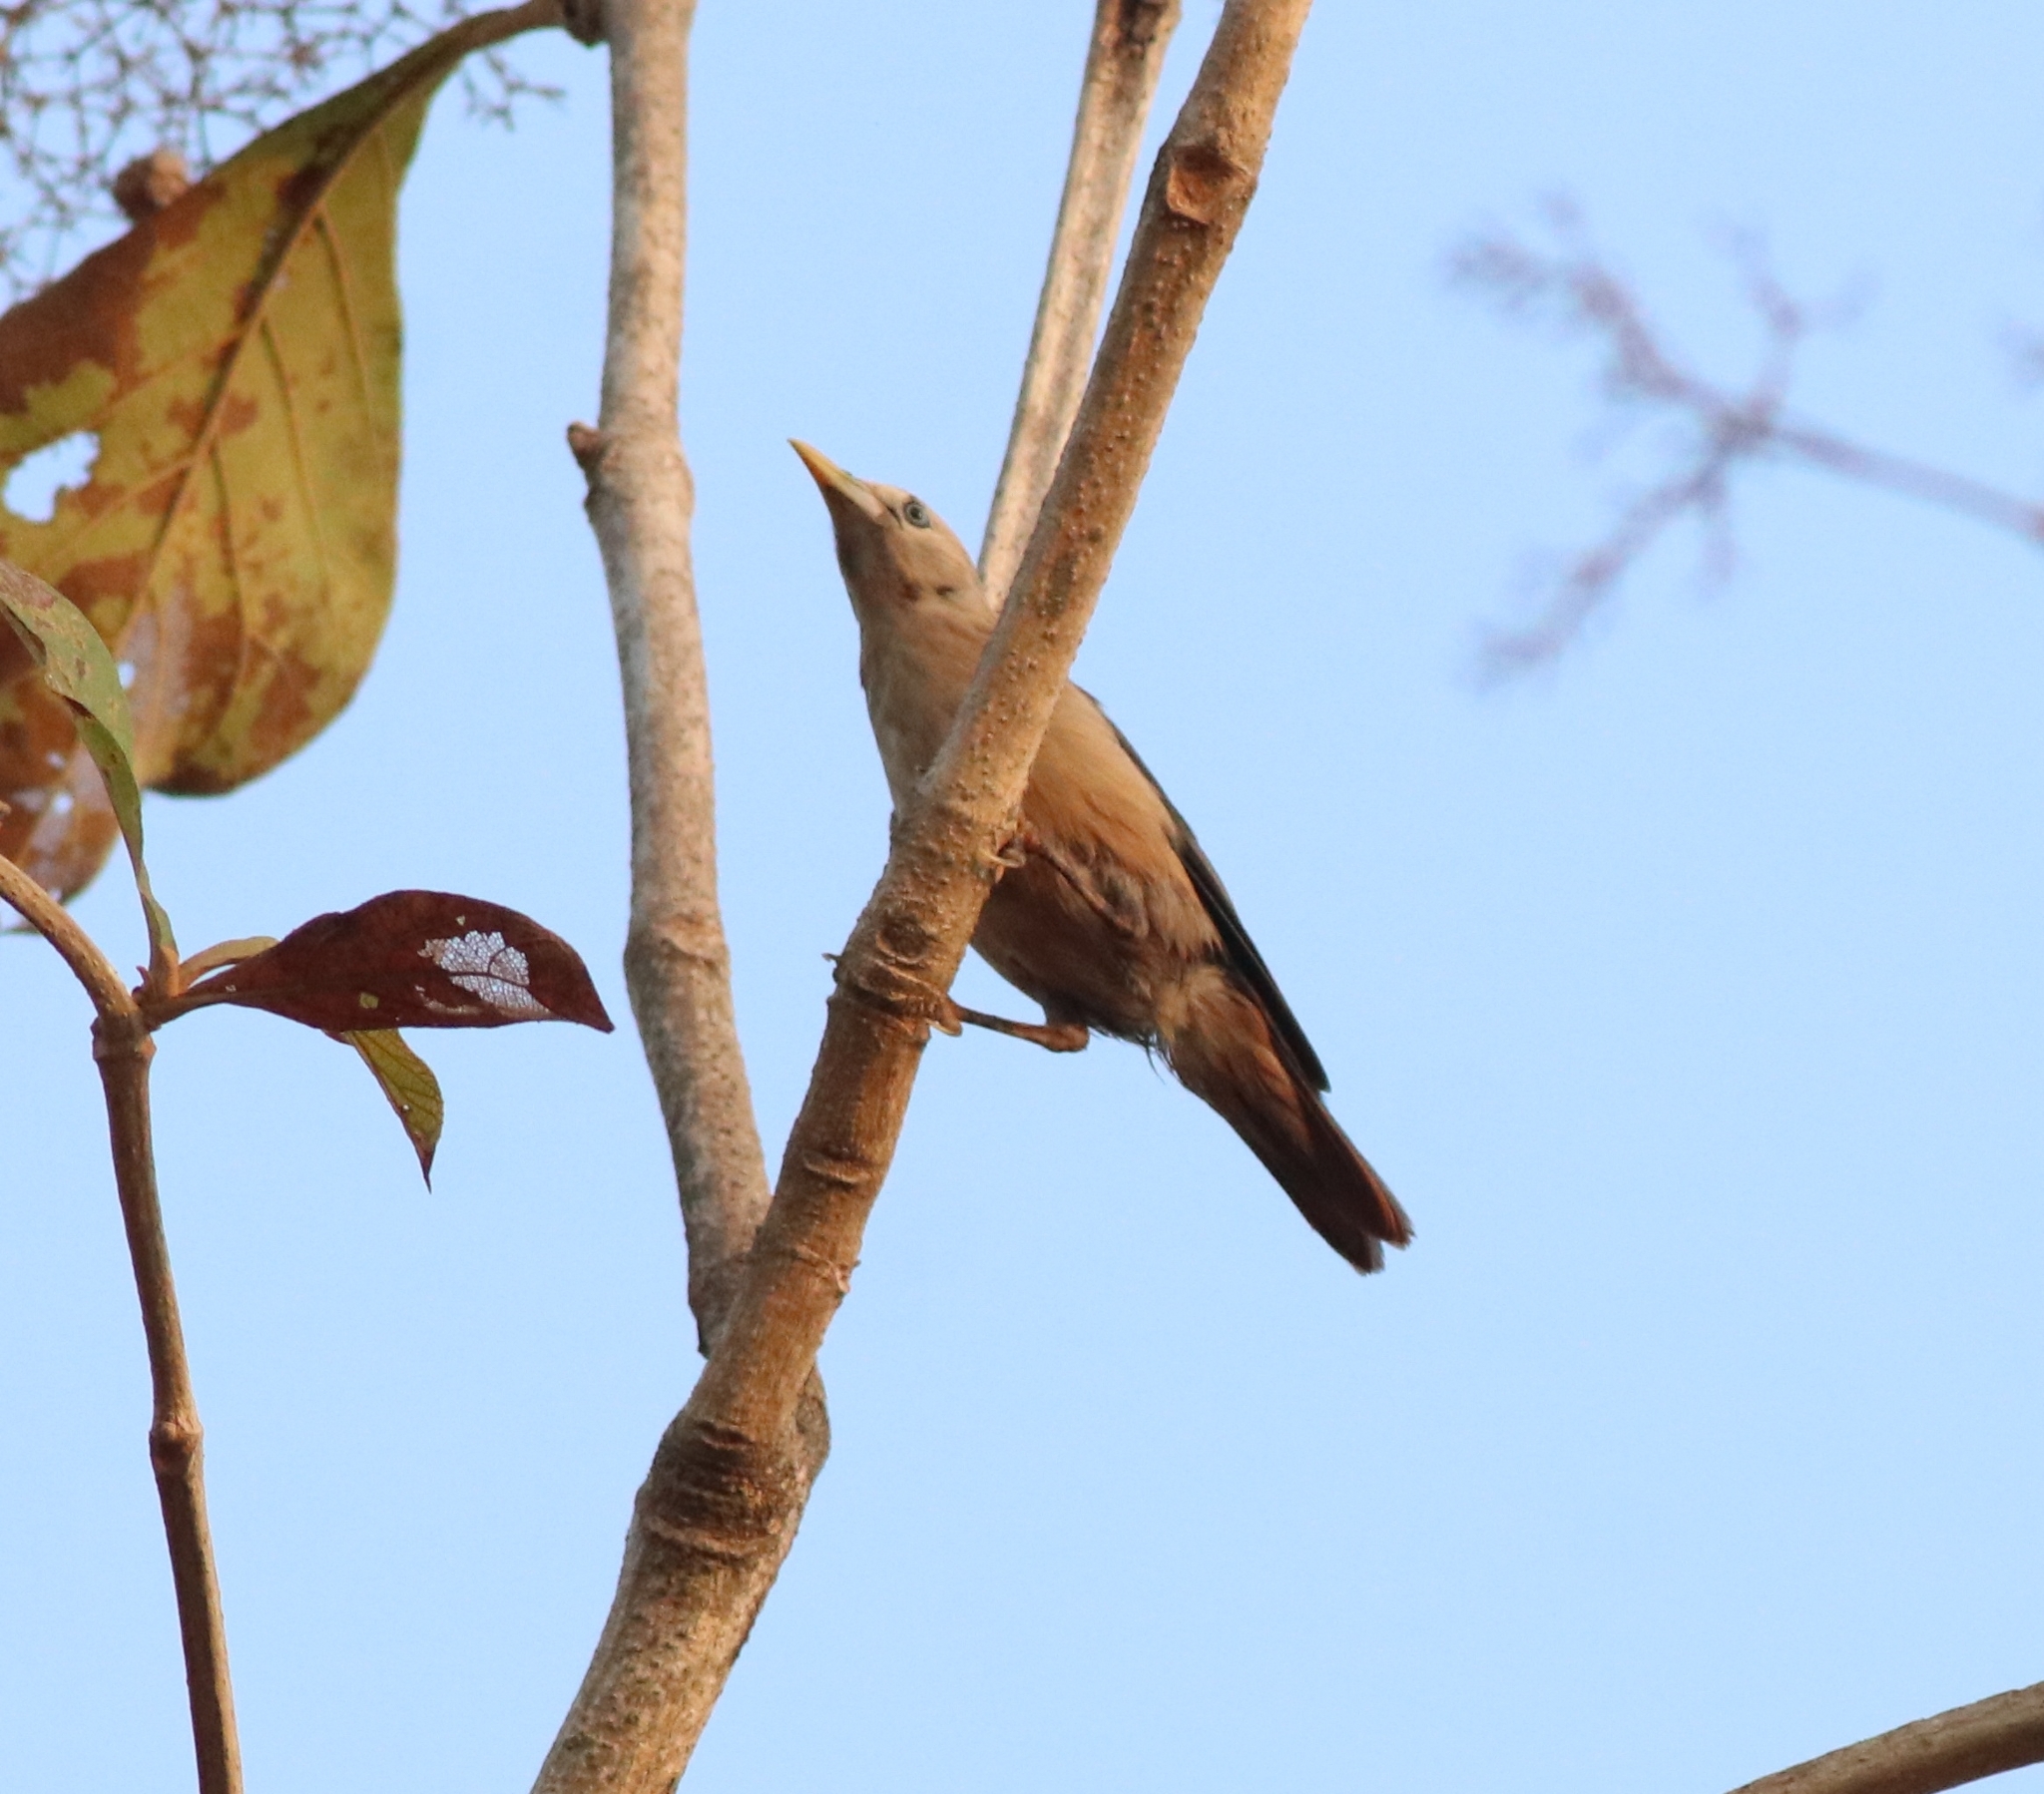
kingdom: Animalia
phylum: Chordata
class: Aves
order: Passeriformes
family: Sturnidae
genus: Sturnia
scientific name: Sturnia malabarica
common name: Chestnut-tailed starling
